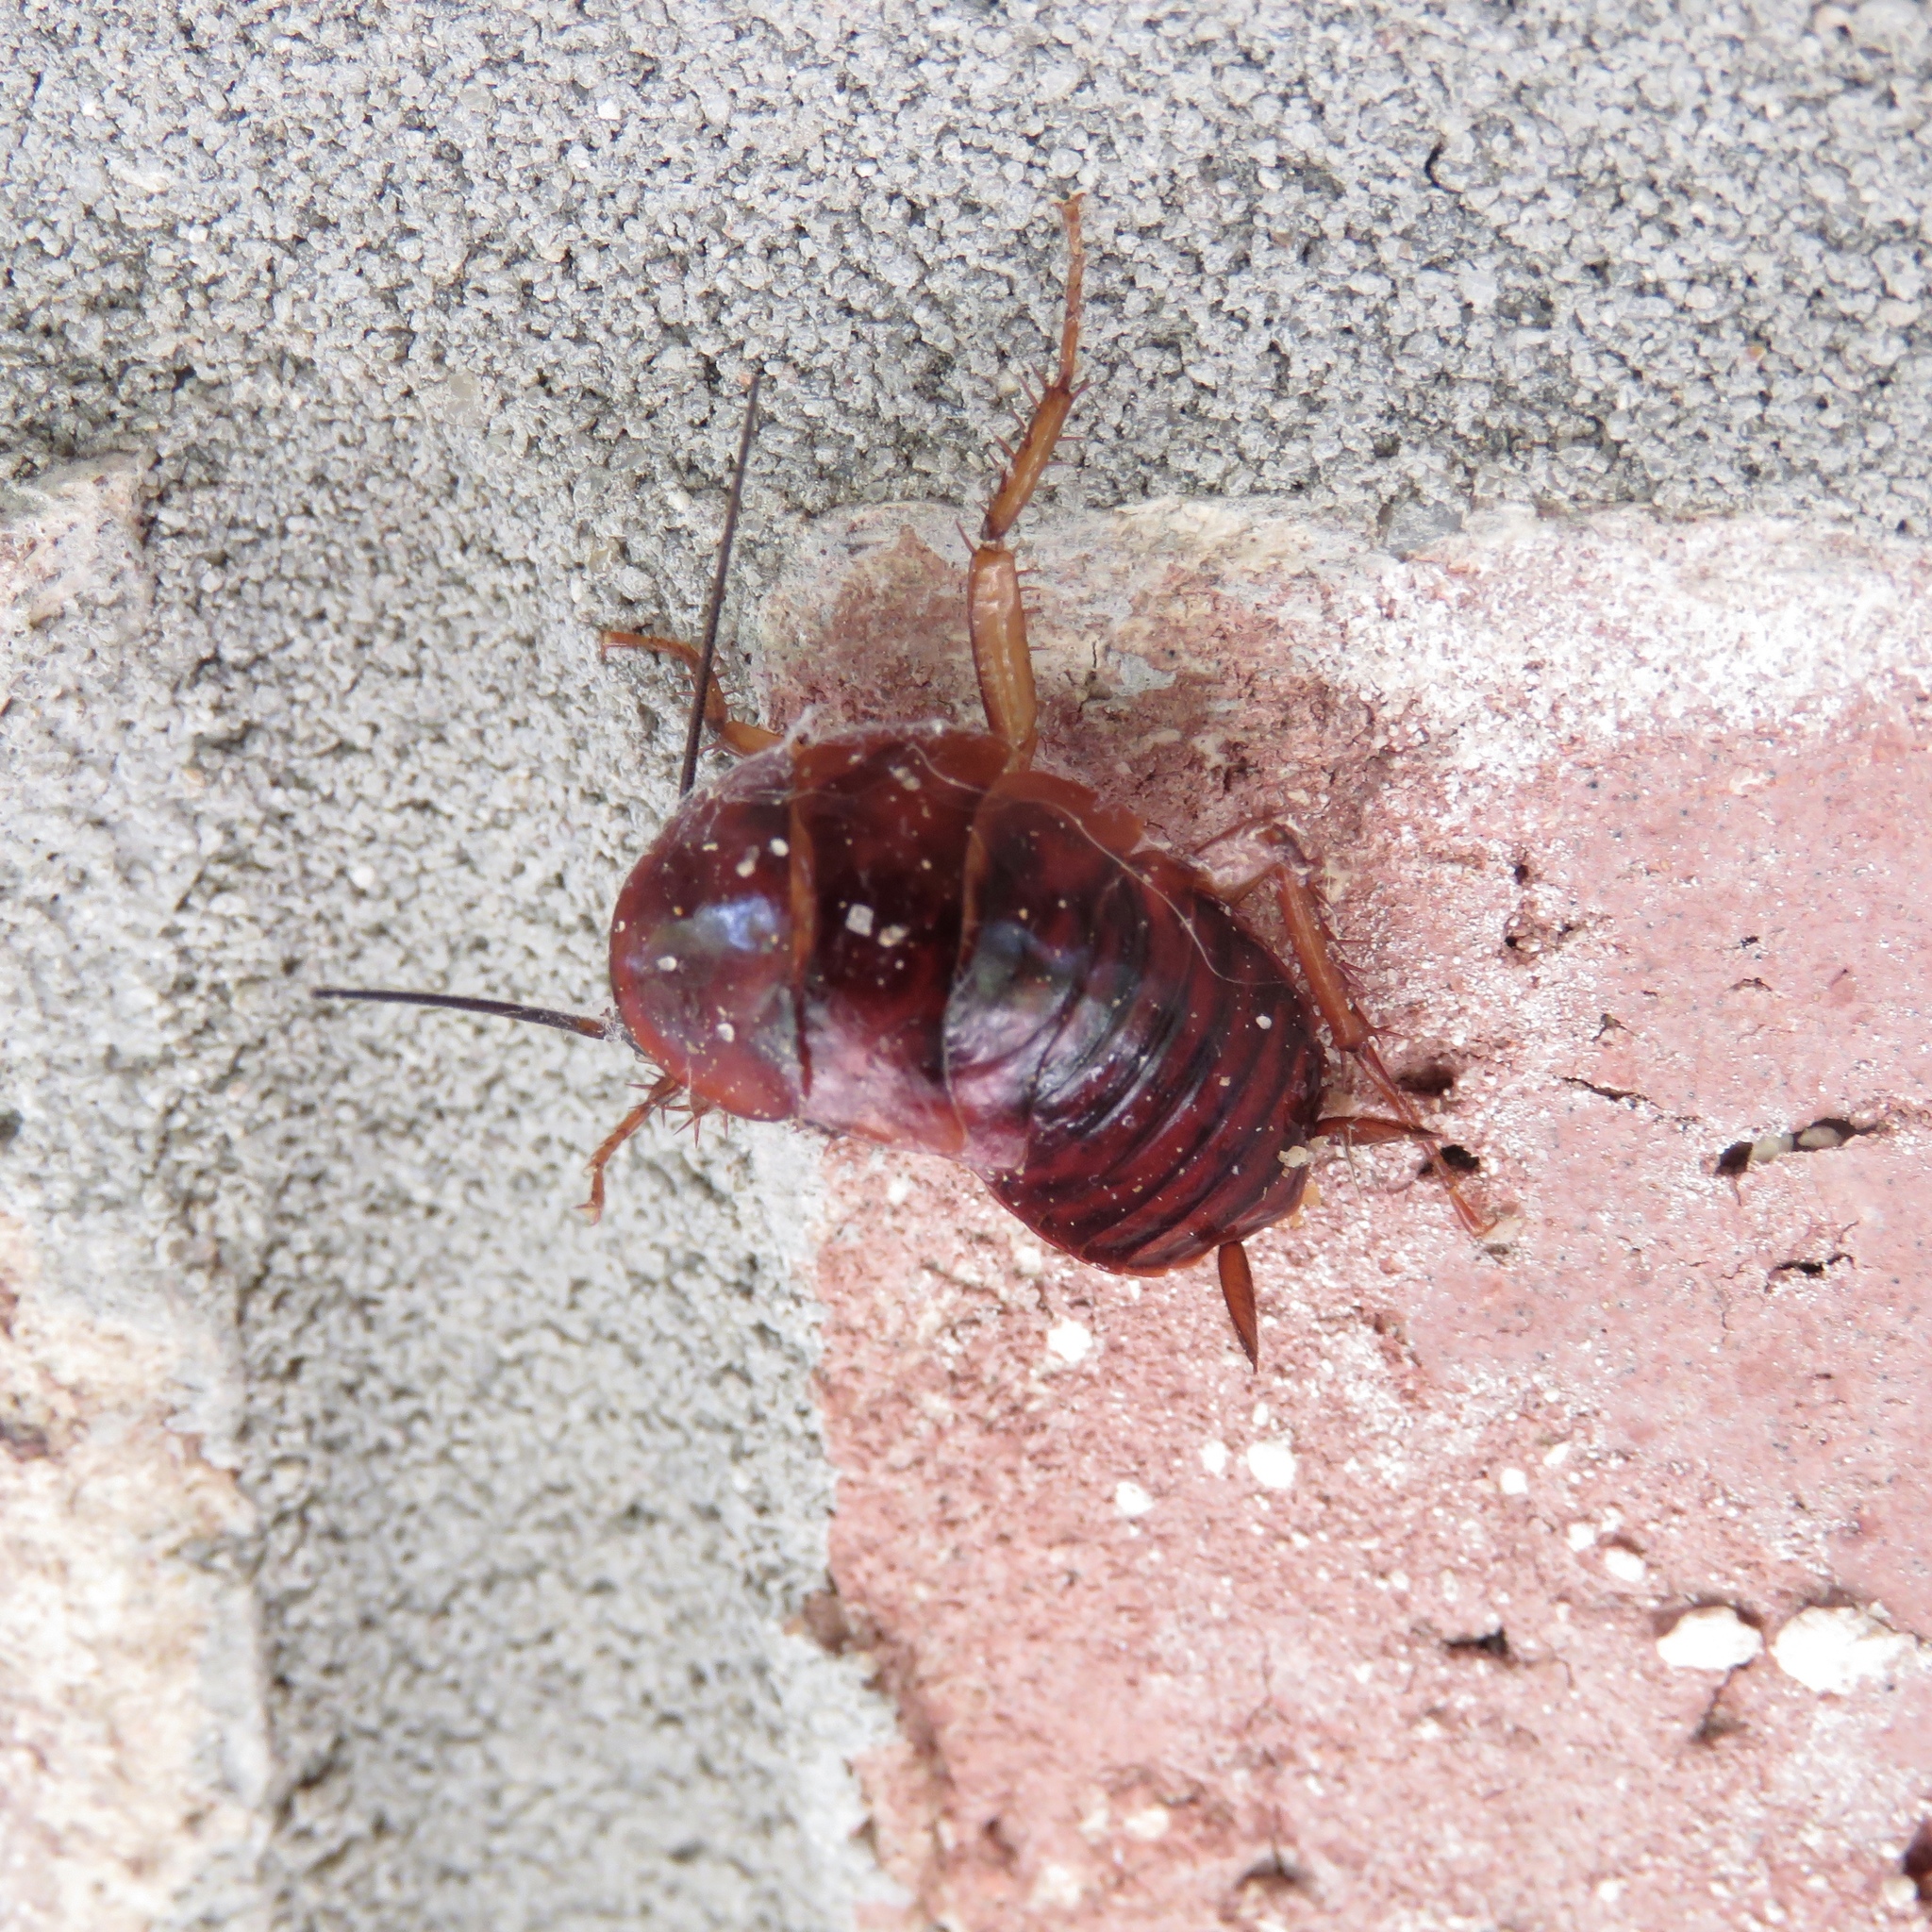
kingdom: Animalia
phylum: Arthropoda
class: Insecta
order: Blattodea
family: Blattidae
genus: Periplaneta
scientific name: Periplaneta fuliginosa
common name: Smokeybrown cockroad
